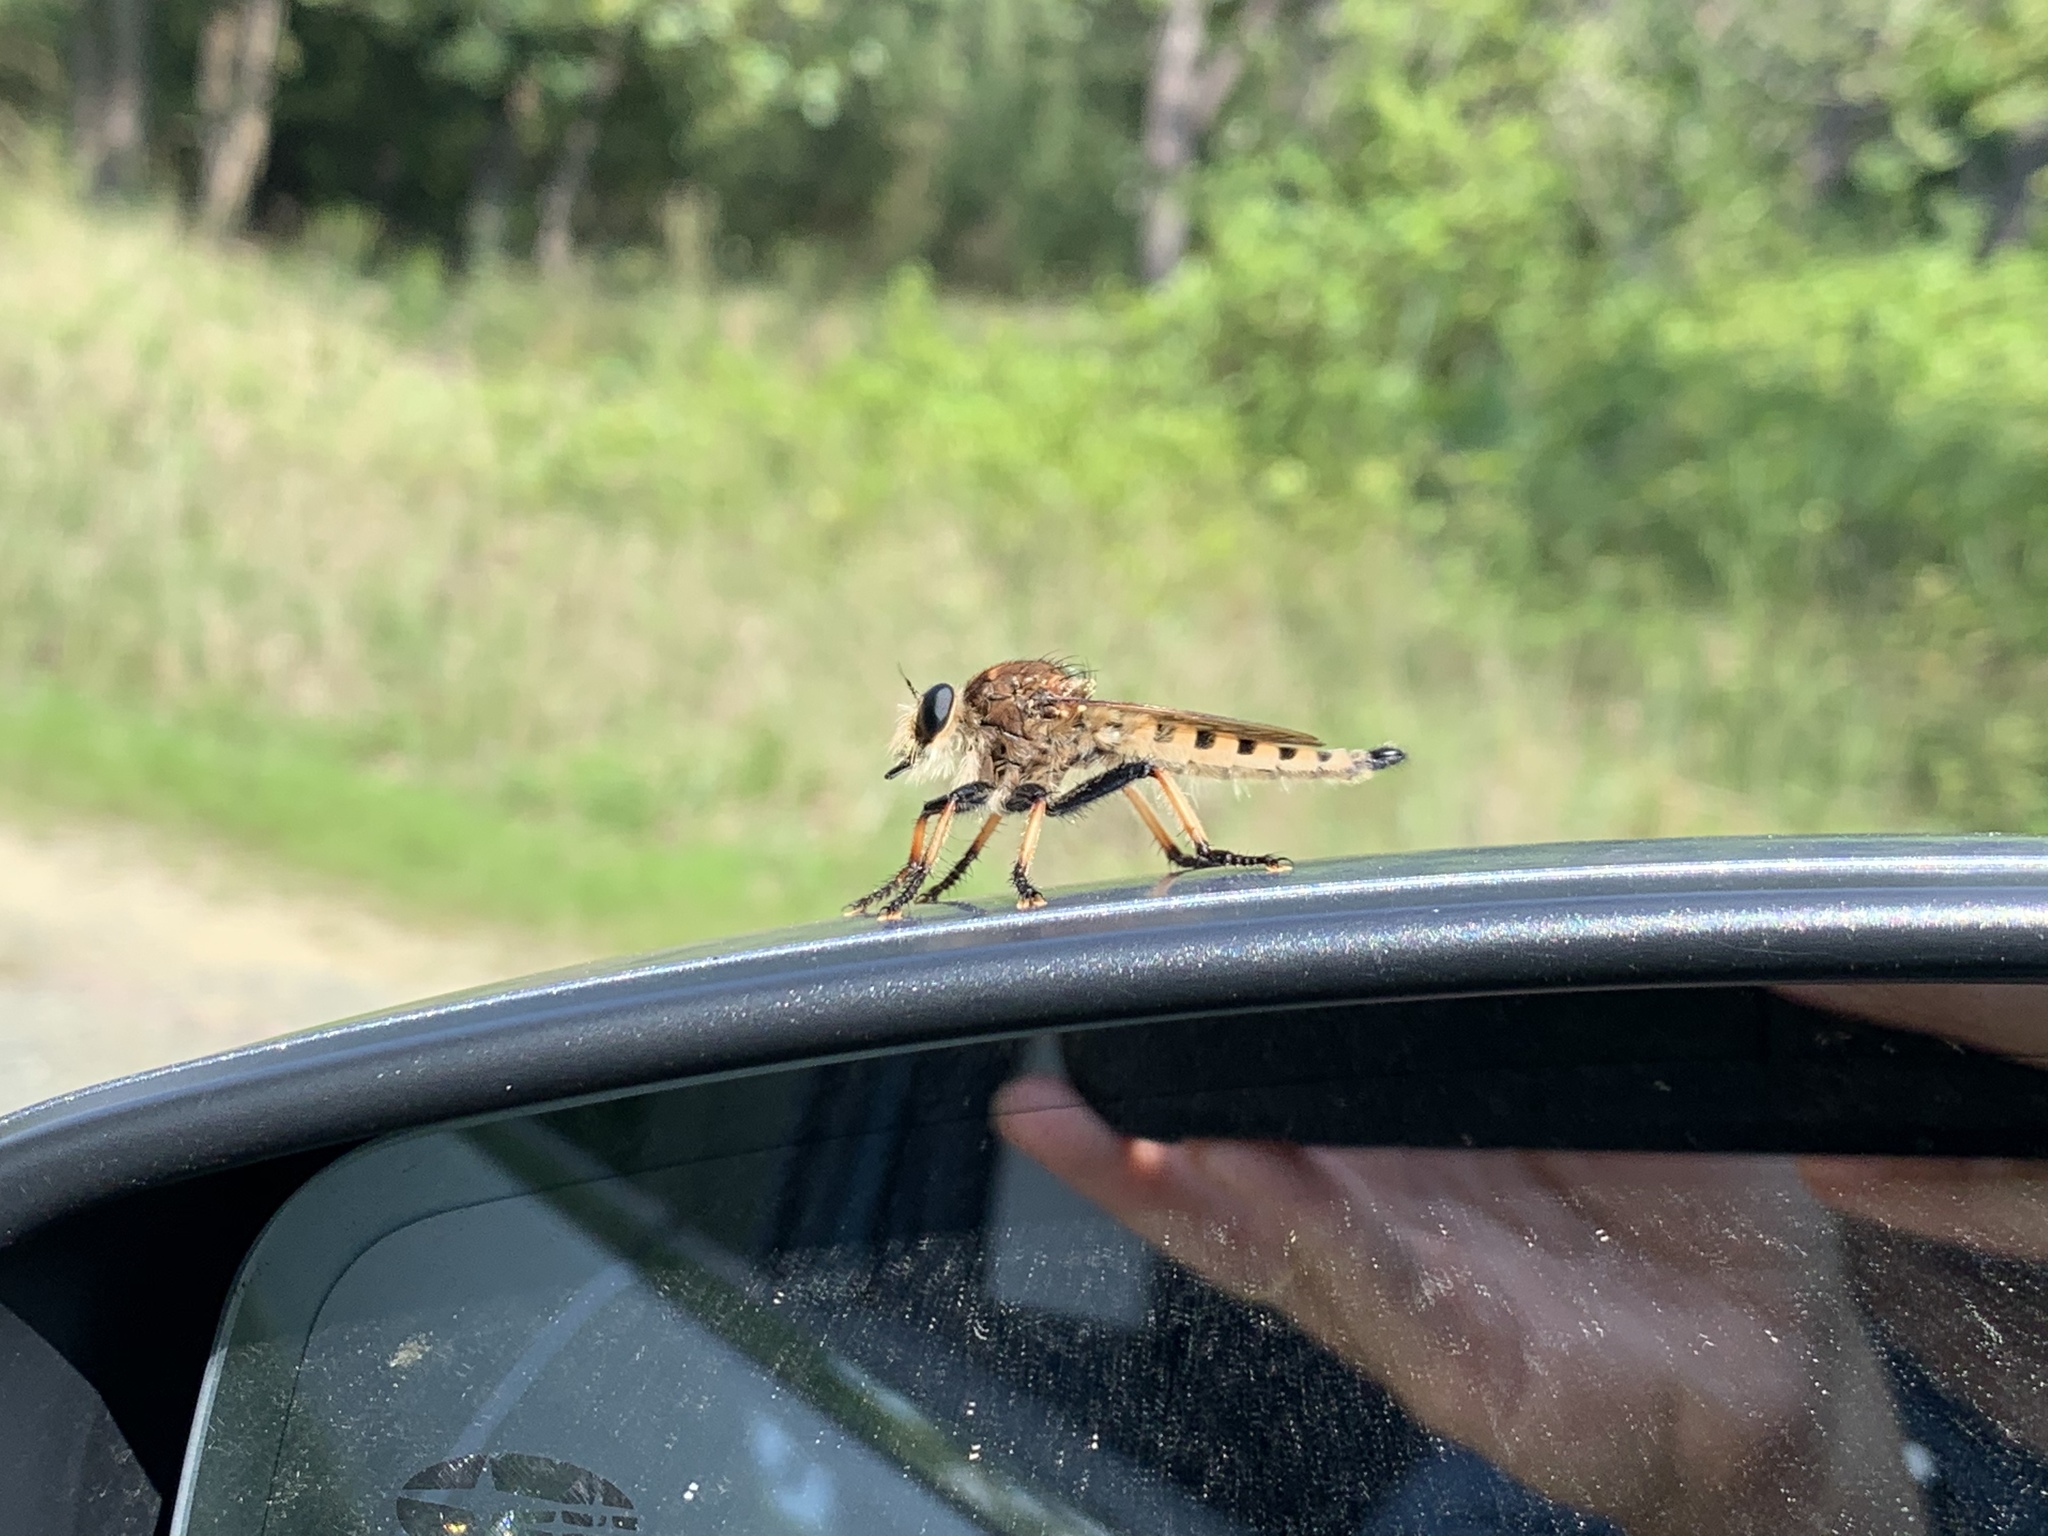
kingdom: Animalia
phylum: Arthropoda
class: Insecta
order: Diptera
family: Asilidae
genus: Promachus
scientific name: Promachus rufipes
